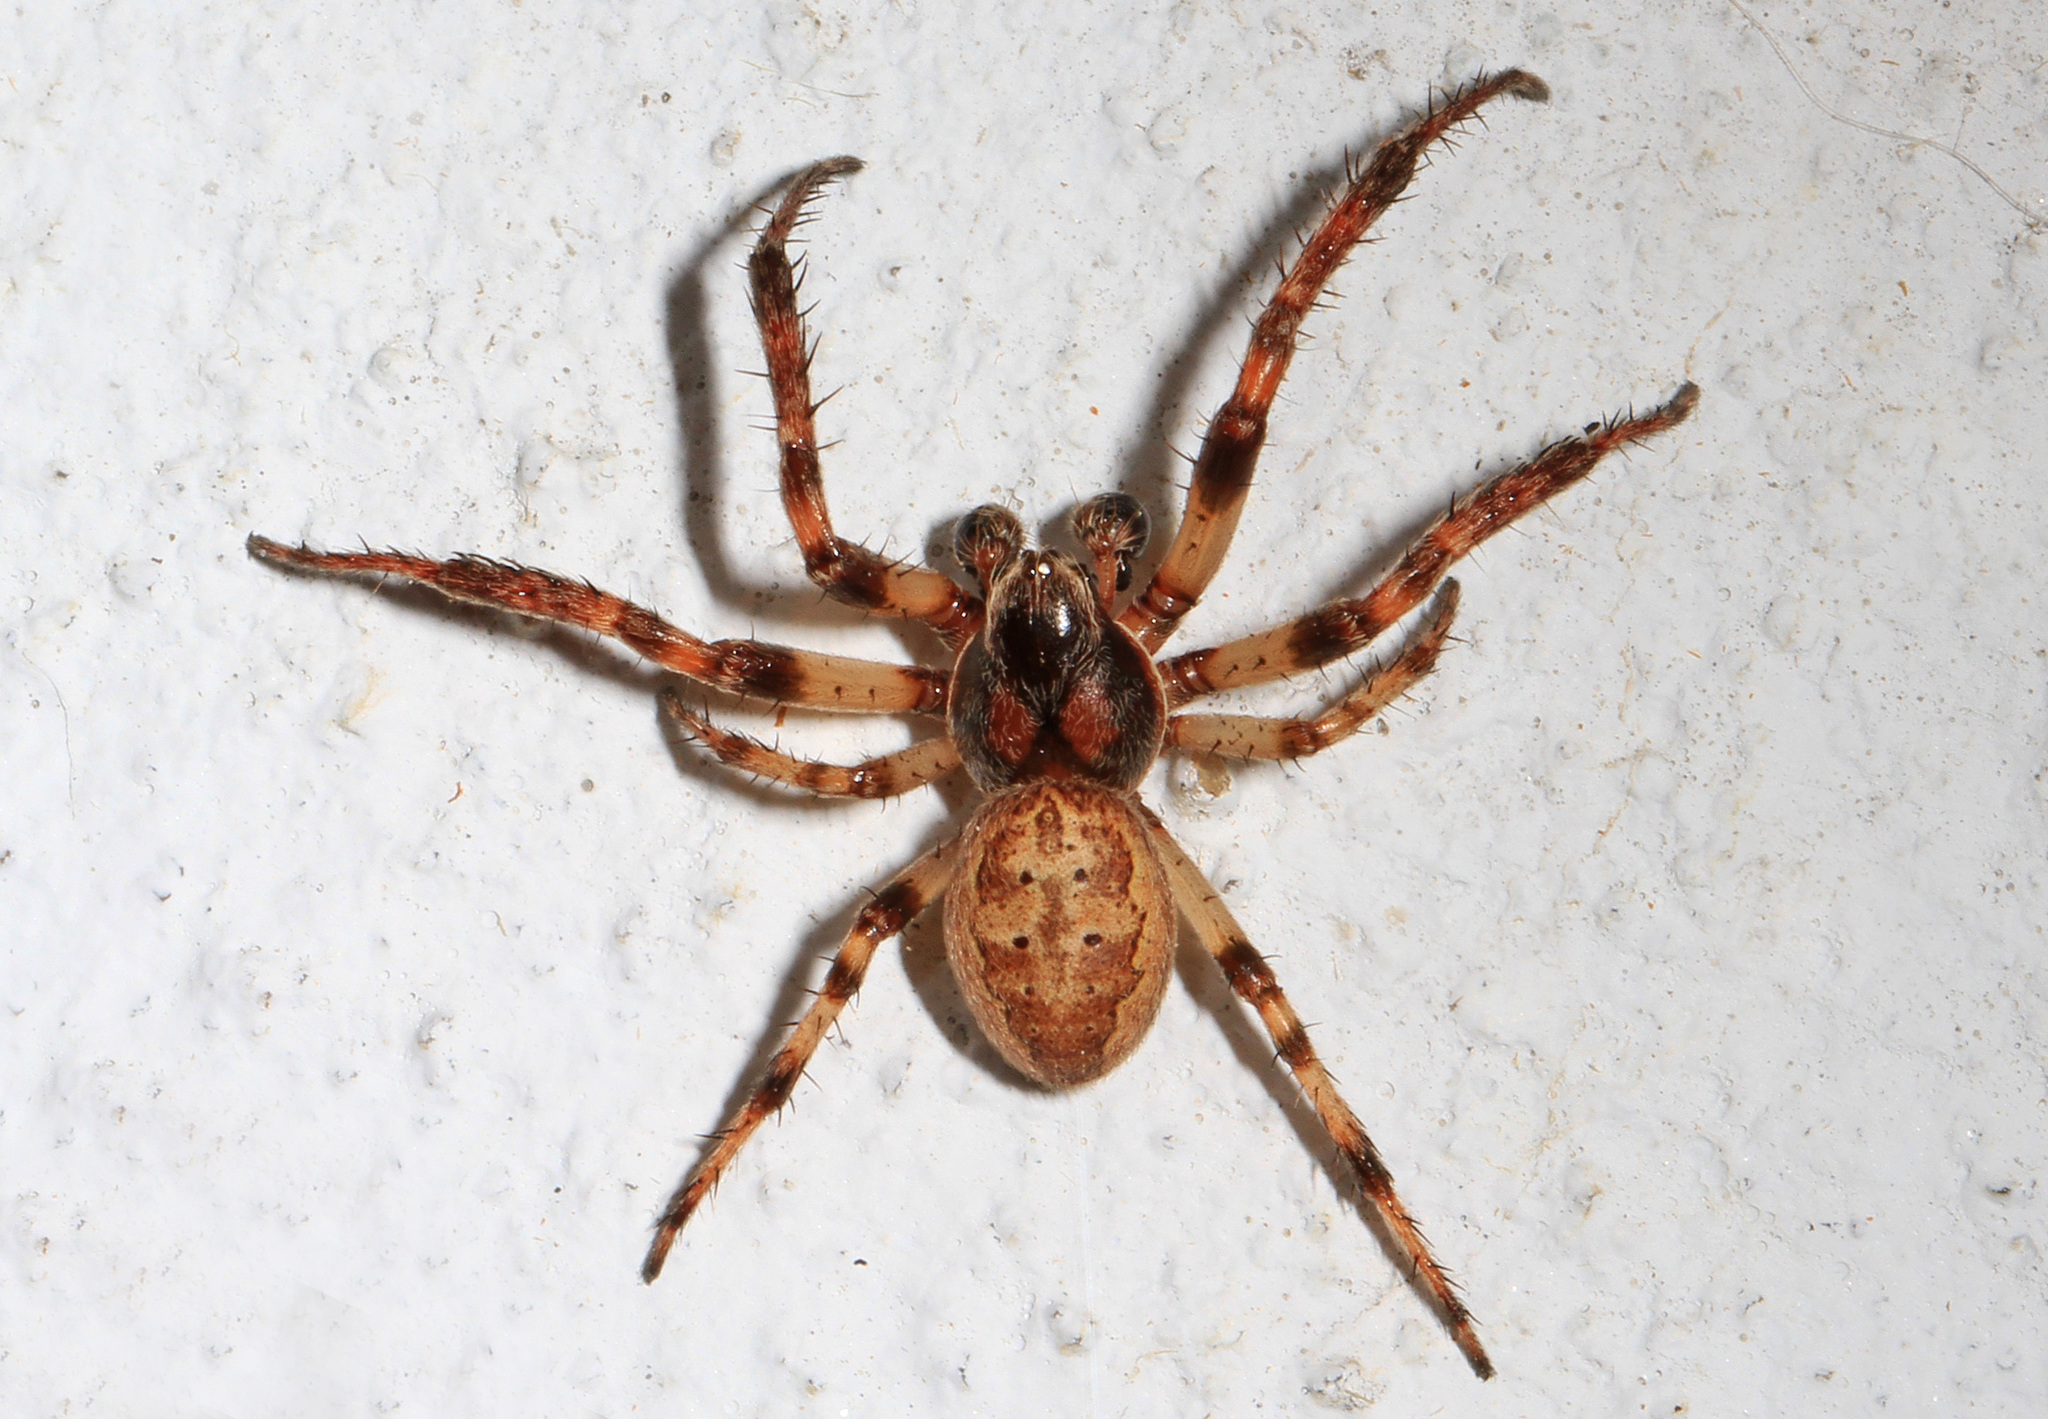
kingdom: Animalia
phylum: Arthropoda
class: Arachnida
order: Araneae
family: Araneidae
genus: Larinioides
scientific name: Larinioides cornutus
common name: Furrow orbweaver
